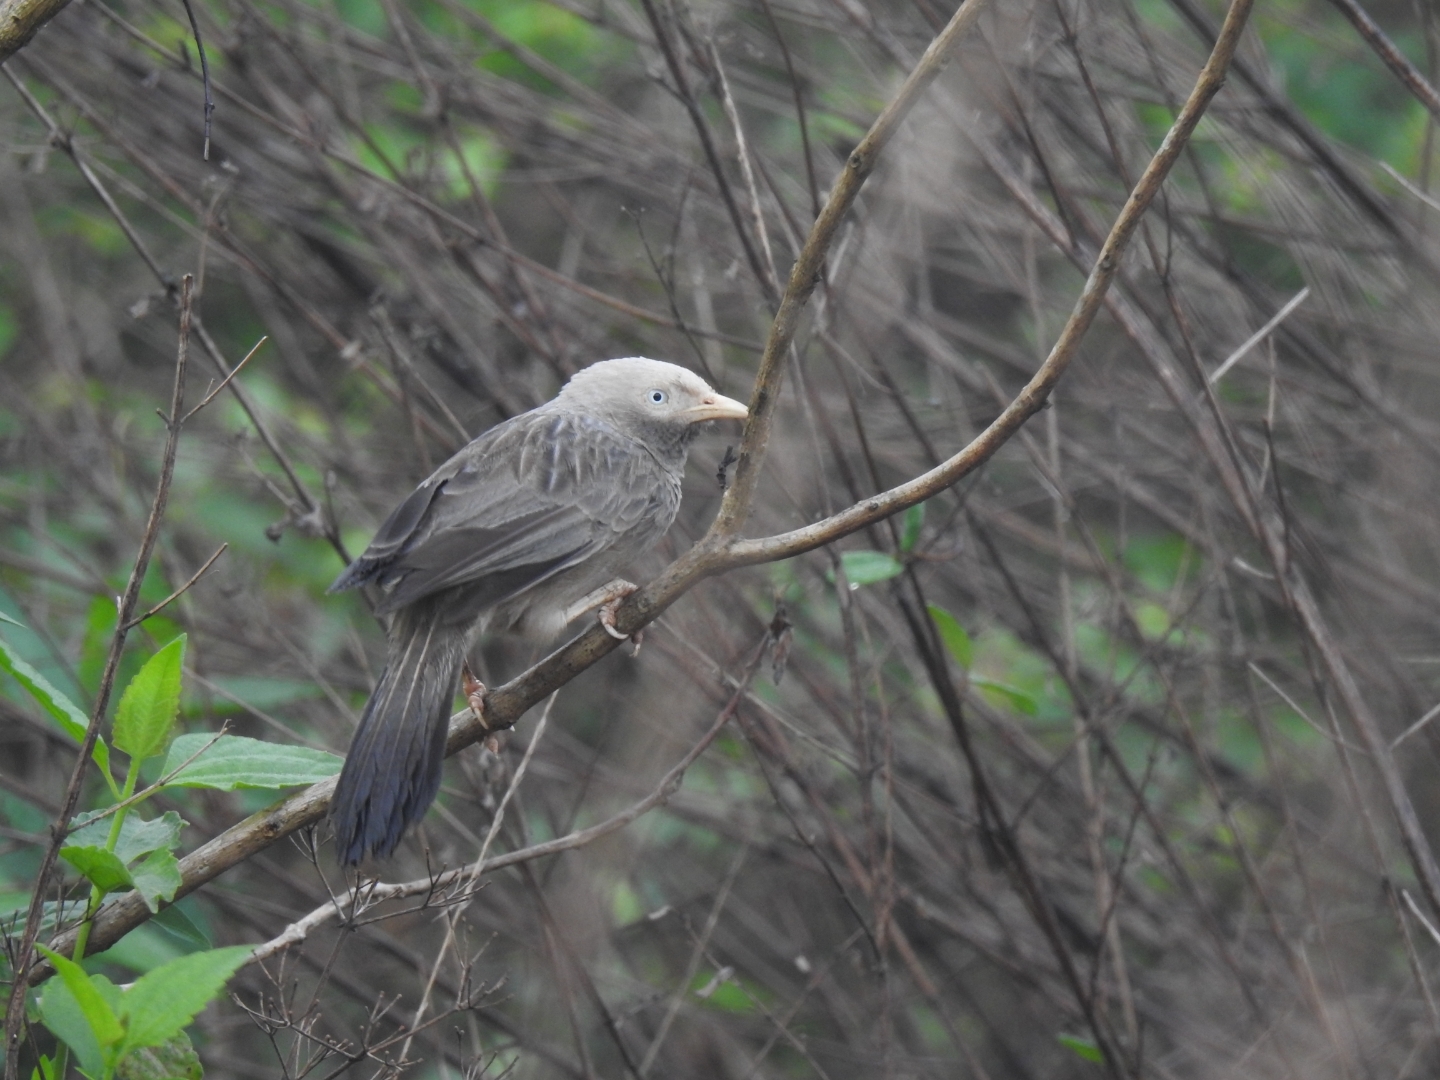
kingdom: Animalia
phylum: Chordata
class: Aves
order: Passeriformes
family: Leiothrichidae
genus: Turdoides
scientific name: Turdoides affinis
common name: Yellow-billed babbler
